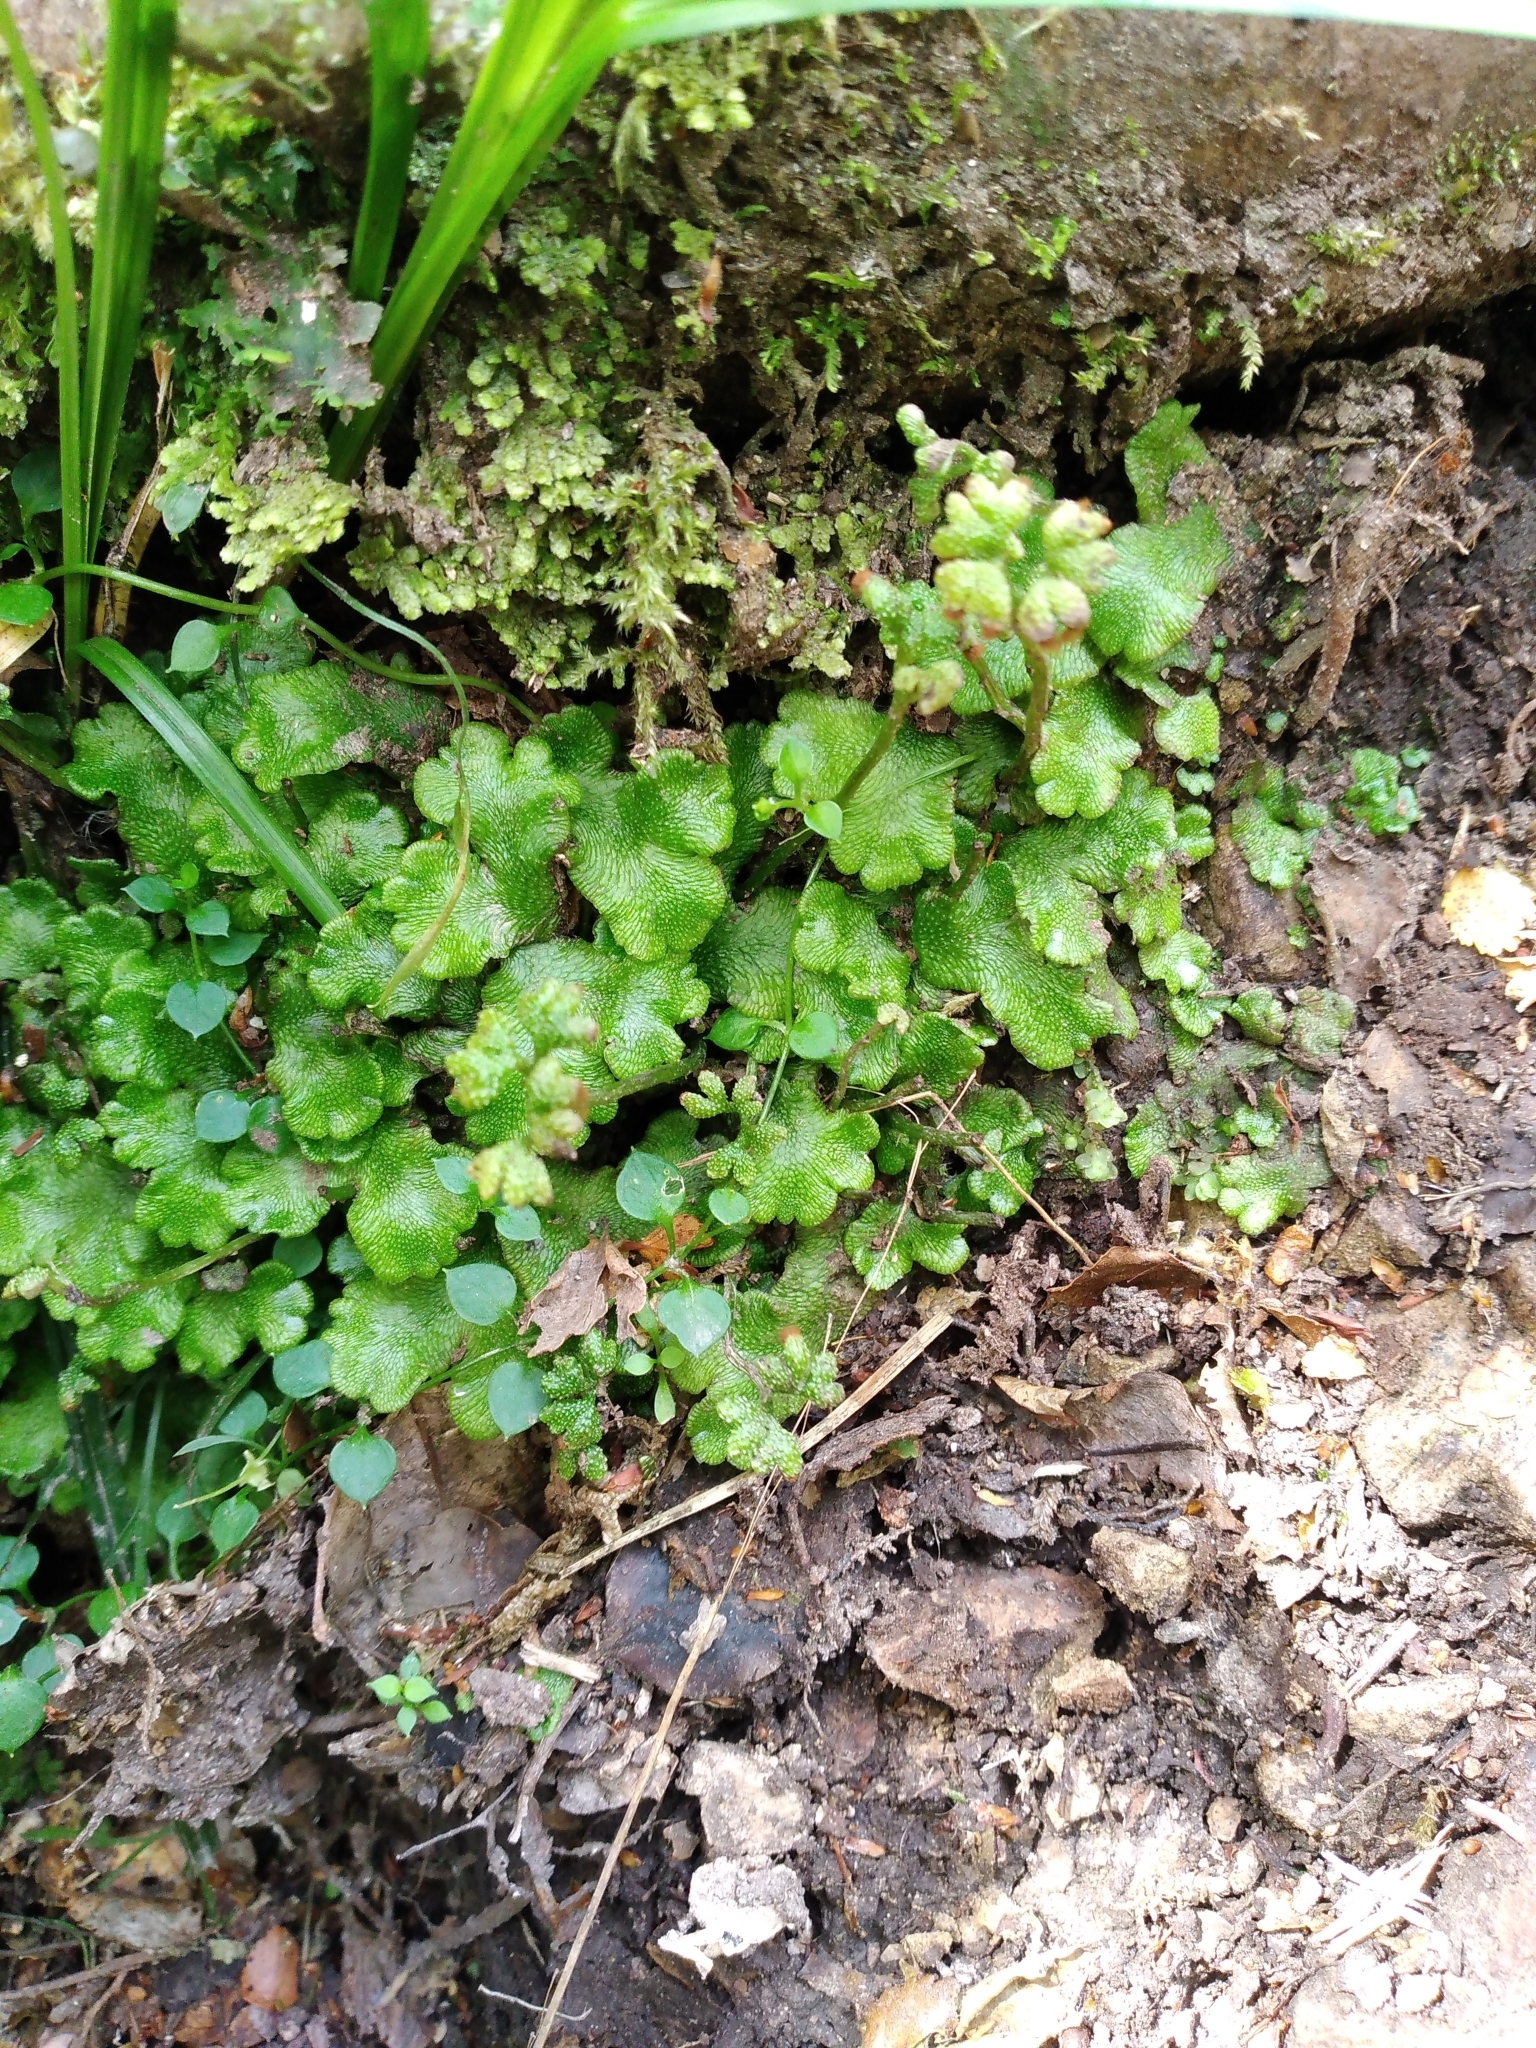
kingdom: Plantae
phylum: Marchantiophyta
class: Marchantiopsida
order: Neohodgsoniales
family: Neohodgsoniaceae
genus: Neohodgsonia
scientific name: Neohodgsonia mirabilis
